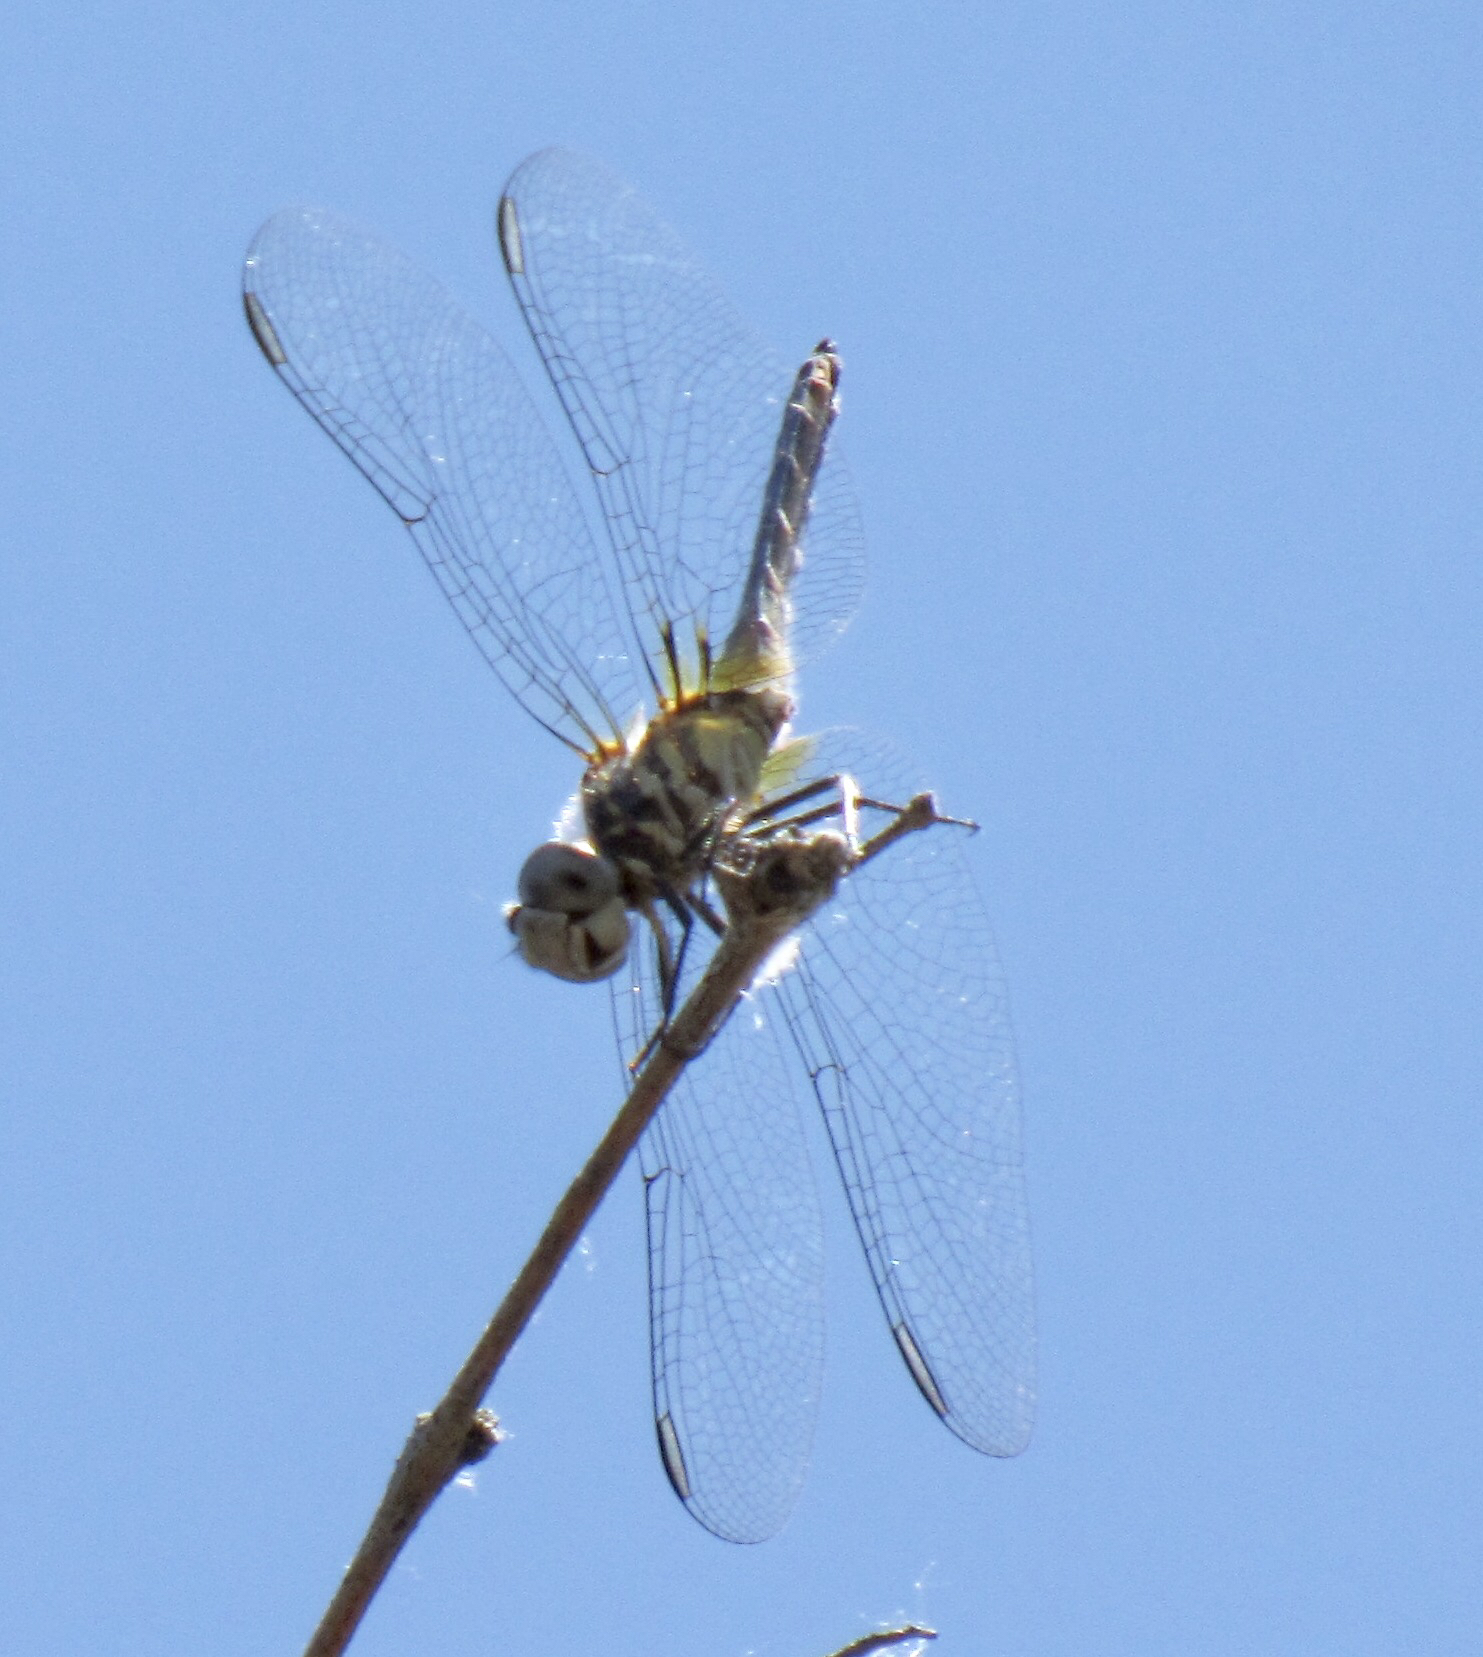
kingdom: Animalia
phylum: Arthropoda
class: Insecta
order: Odonata
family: Libellulidae
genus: Pachydiplax
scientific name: Pachydiplax longipennis
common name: Blue dasher
